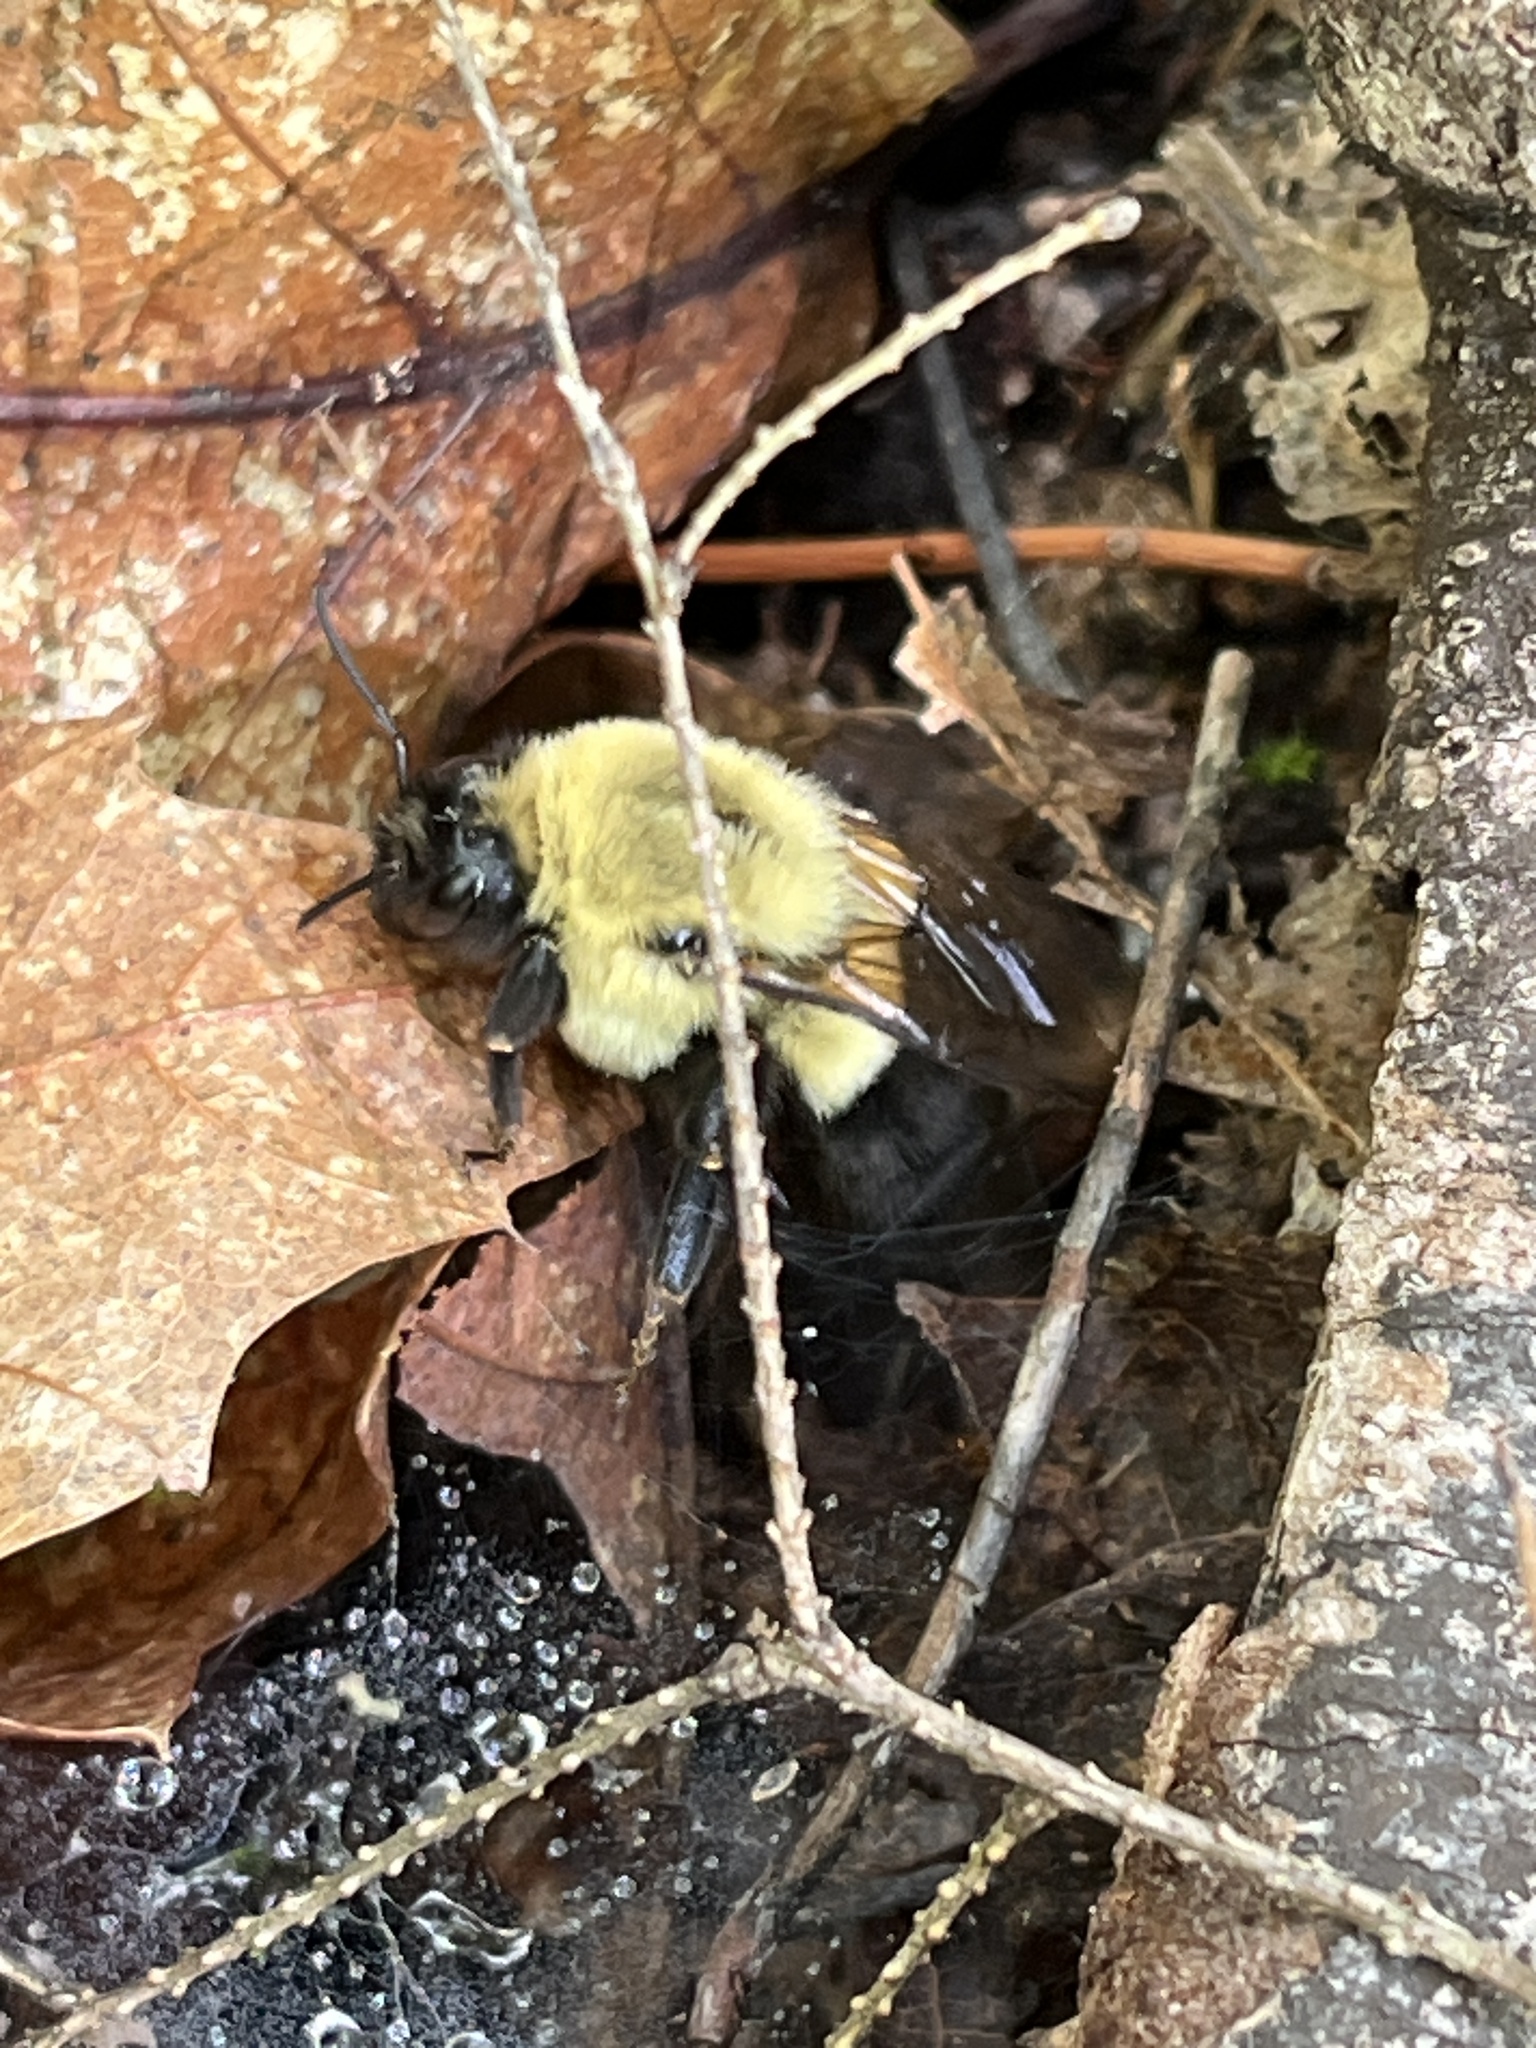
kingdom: Animalia
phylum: Arthropoda
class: Insecta
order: Hymenoptera
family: Apidae
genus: Bombus
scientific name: Bombus impatiens
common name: Common eastern bumble bee
